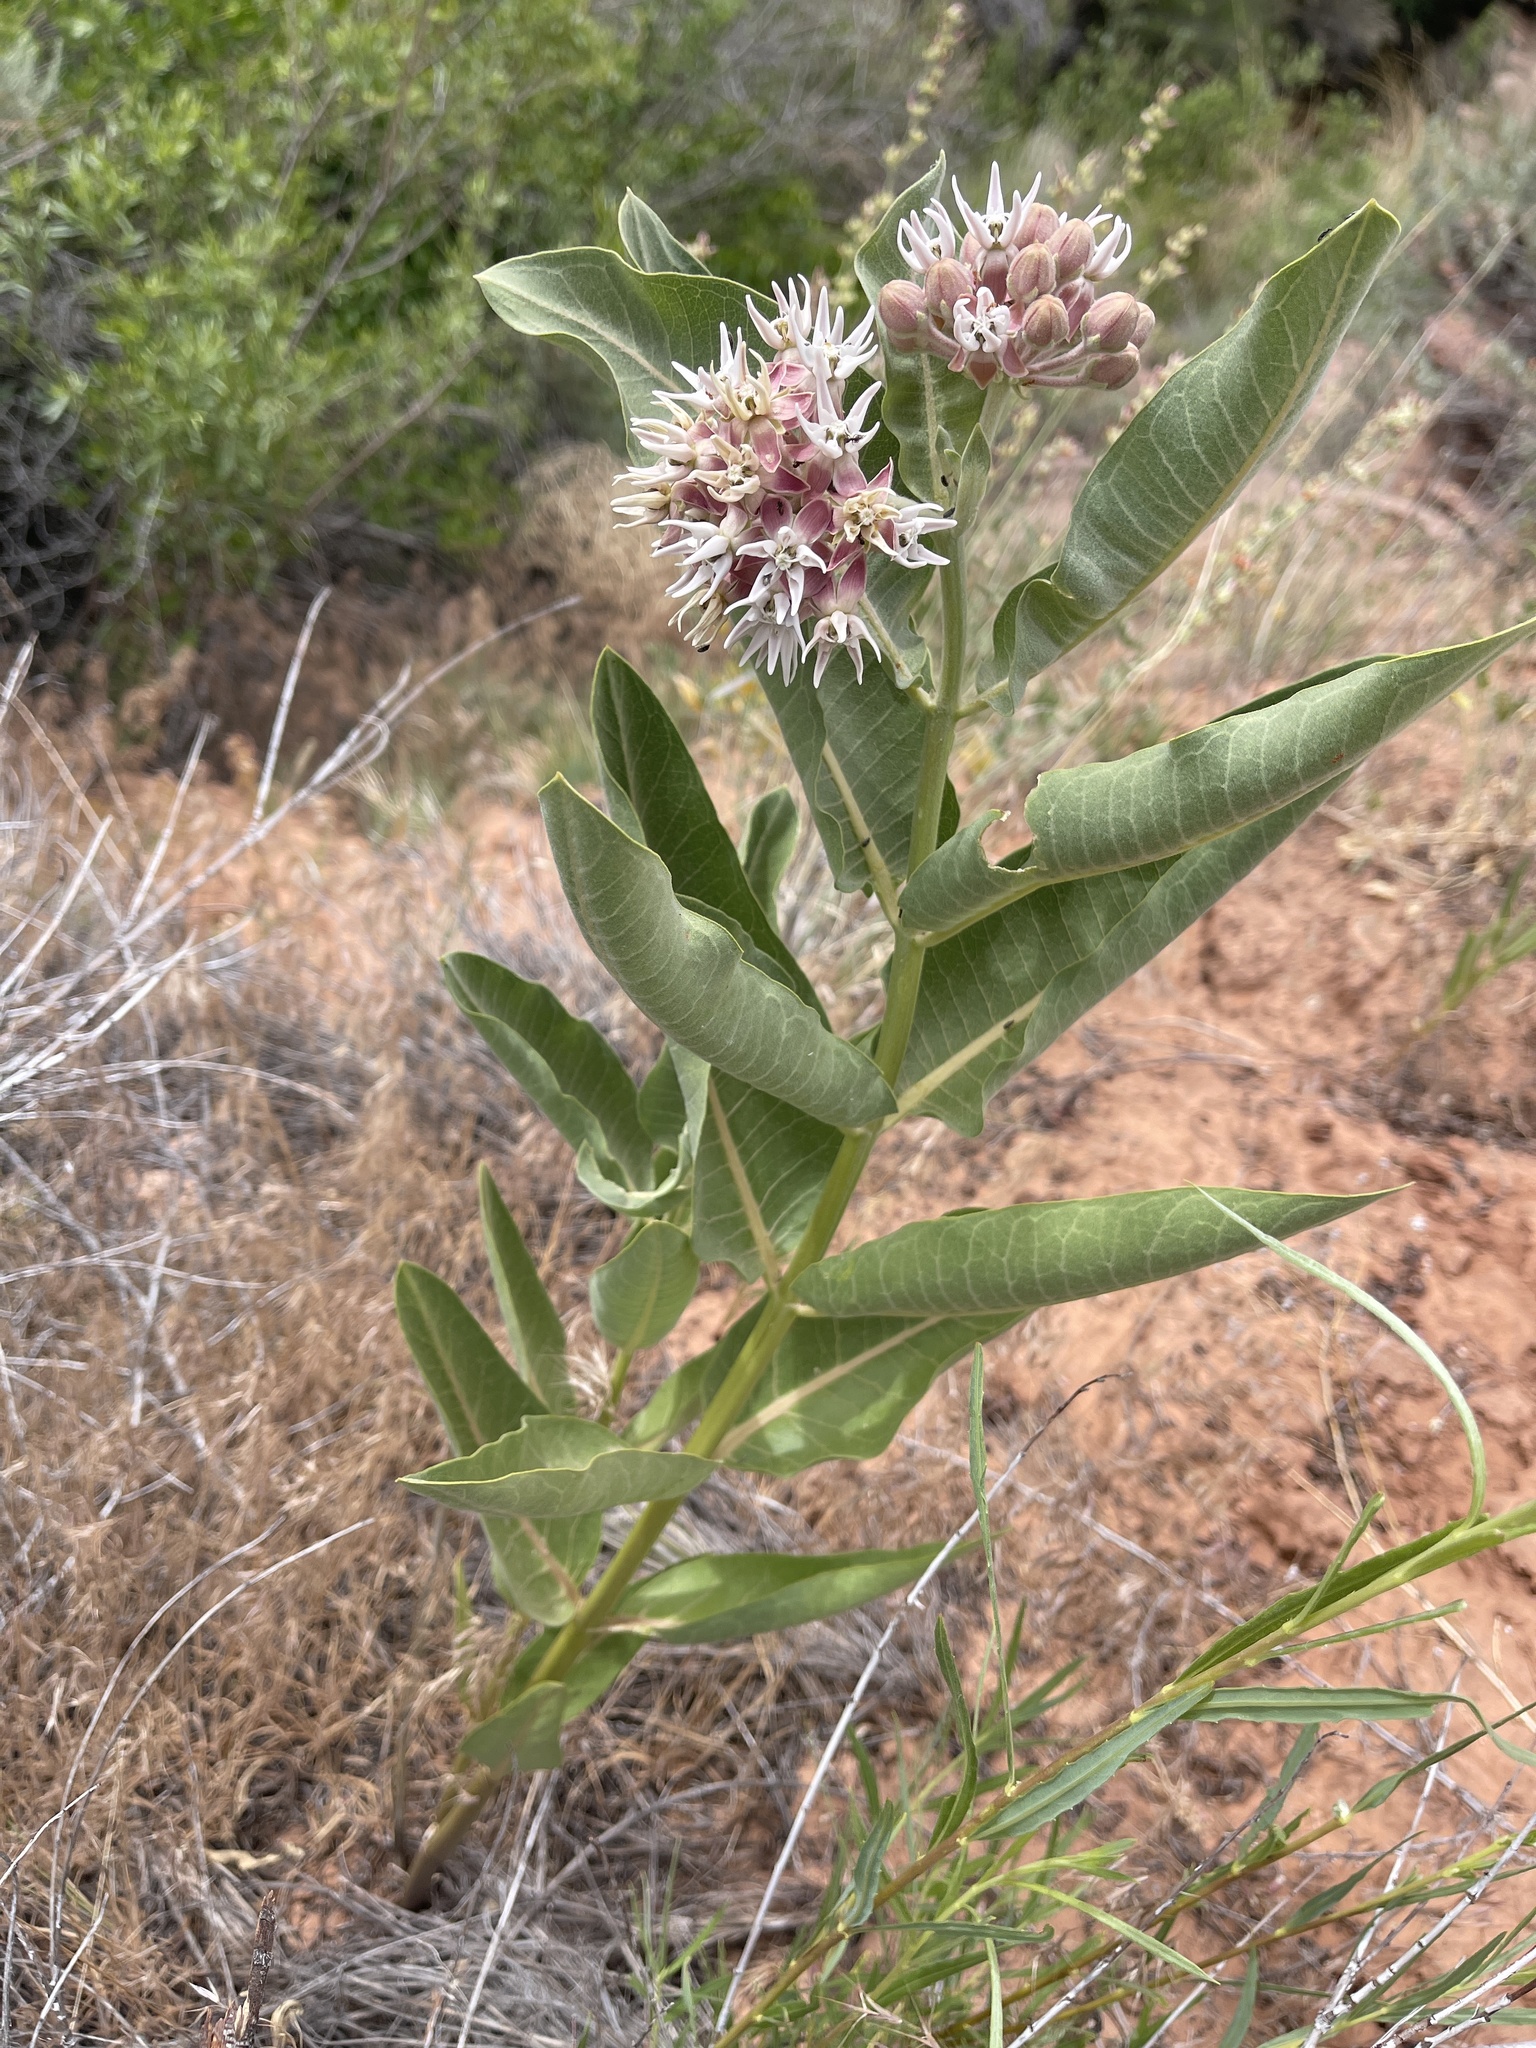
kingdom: Plantae
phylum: Tracheophyta
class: Magnoliopsida
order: Gentianales
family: Apocynaceae
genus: Asclepias
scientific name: Asclepias speciosa
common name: Showy milkweed
